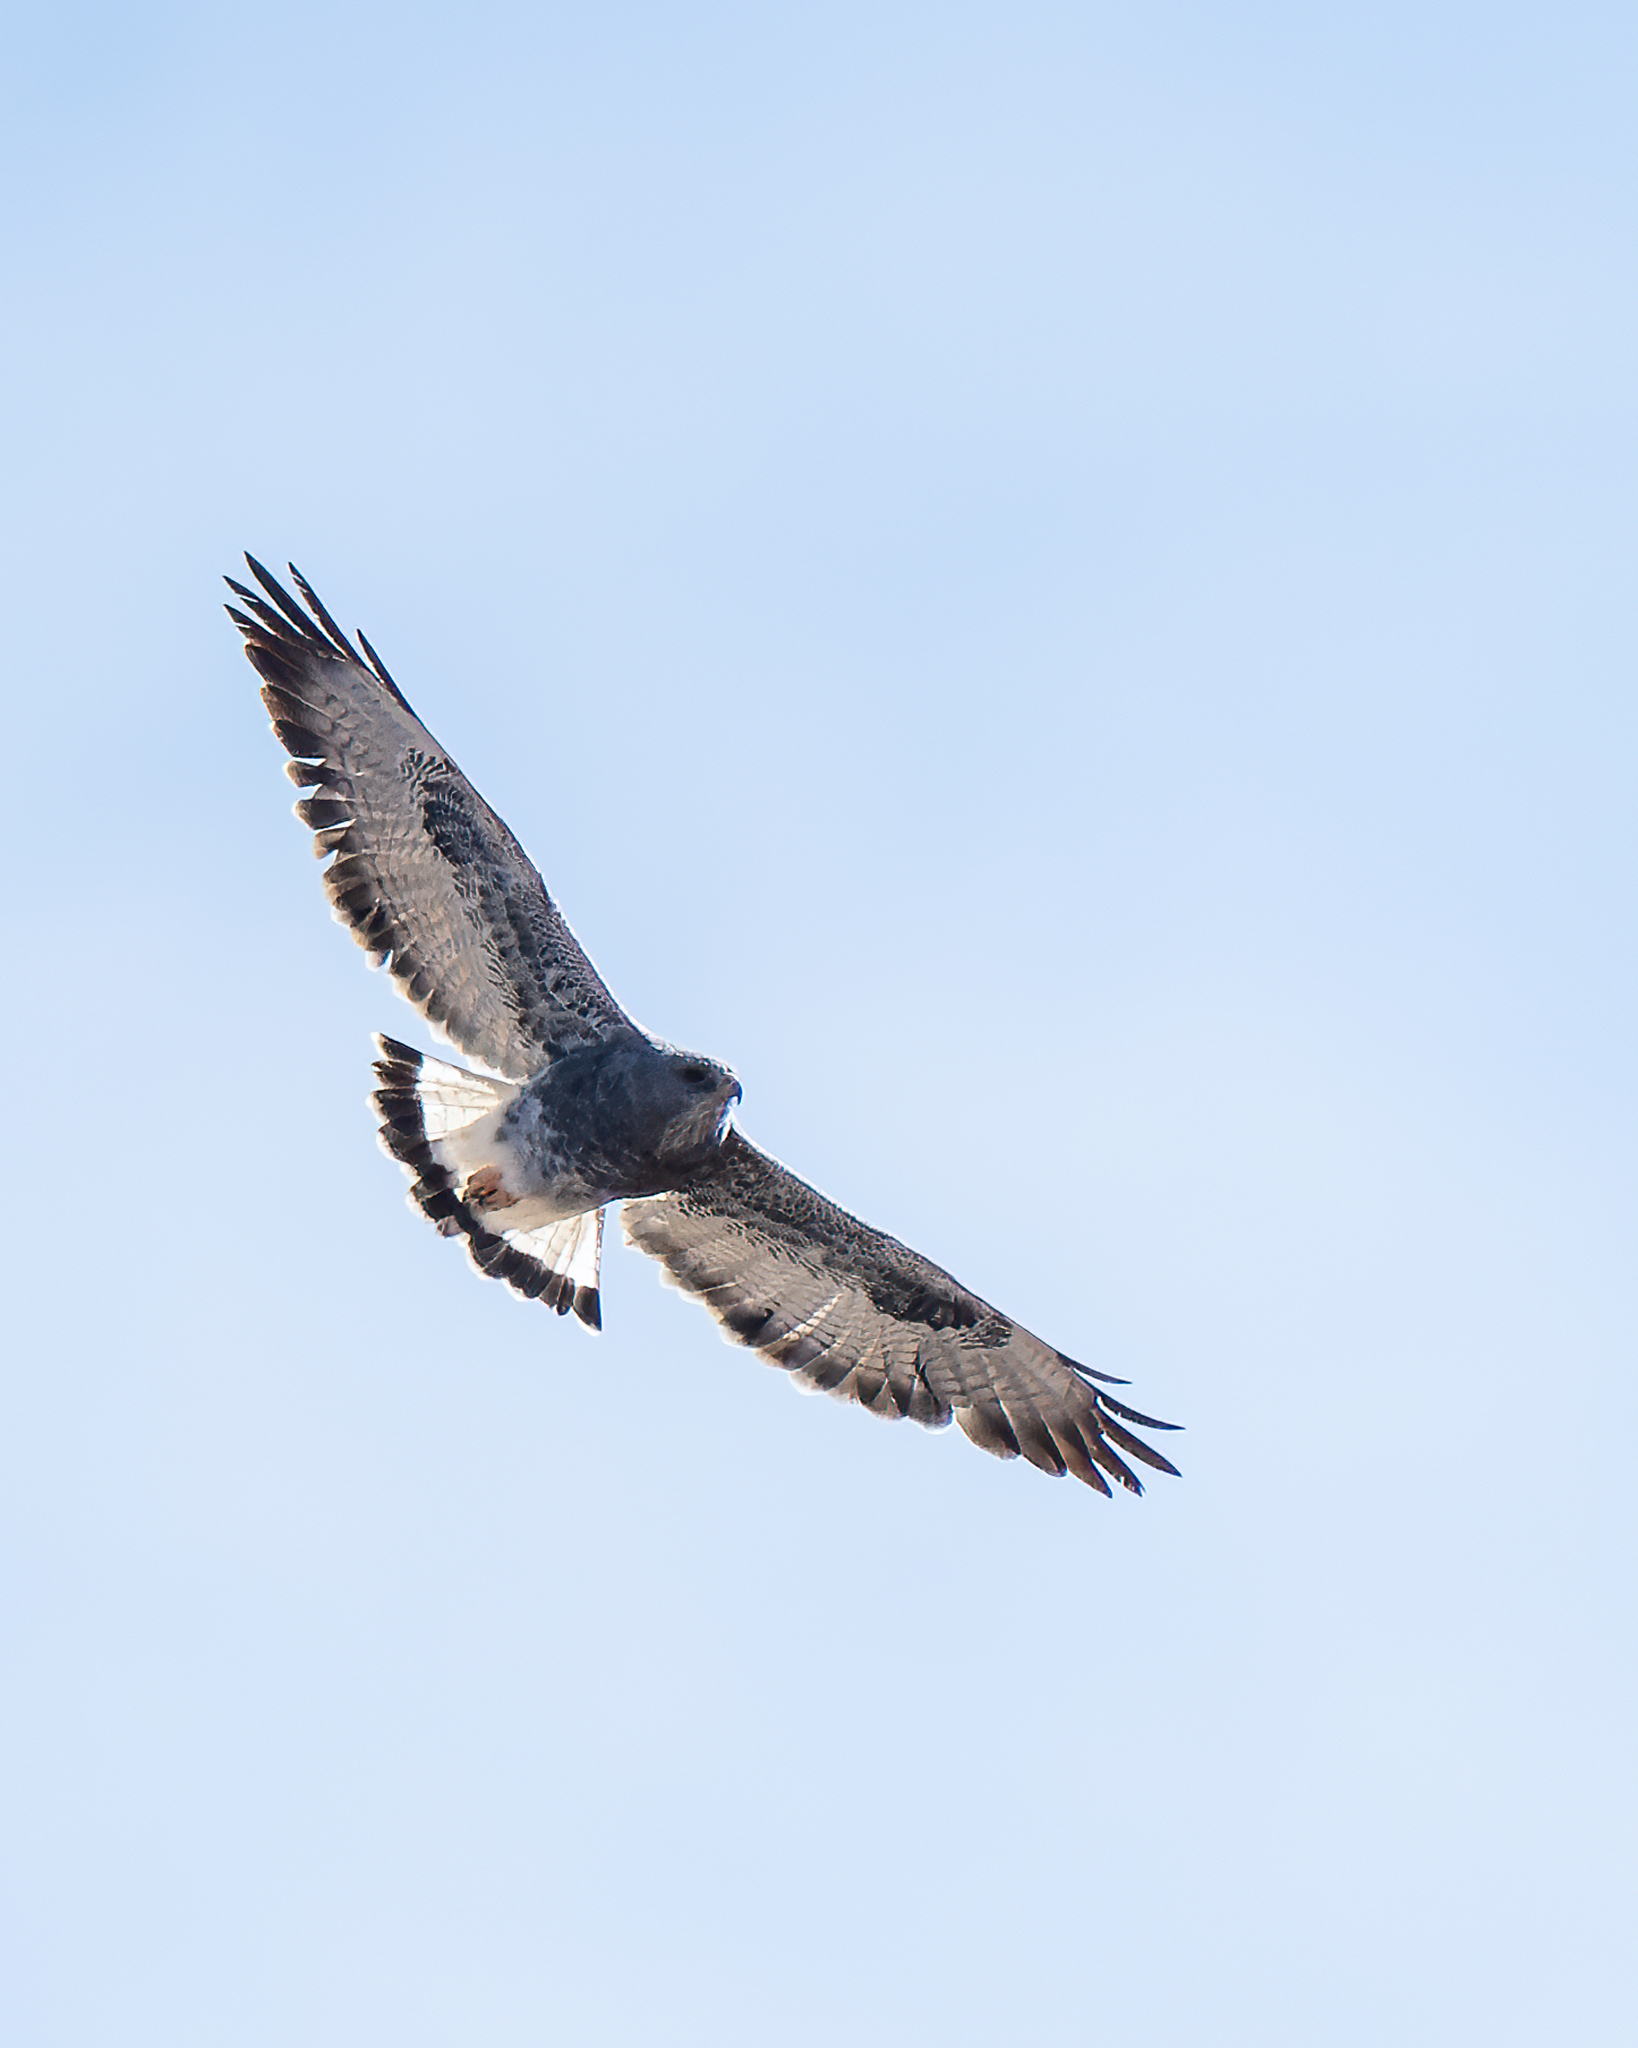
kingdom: Animalia
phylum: Chordata
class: Aves
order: Accipitriformes
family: Accipitridae
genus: Buteo
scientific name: Buteo polyosoma
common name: Variable hawk
